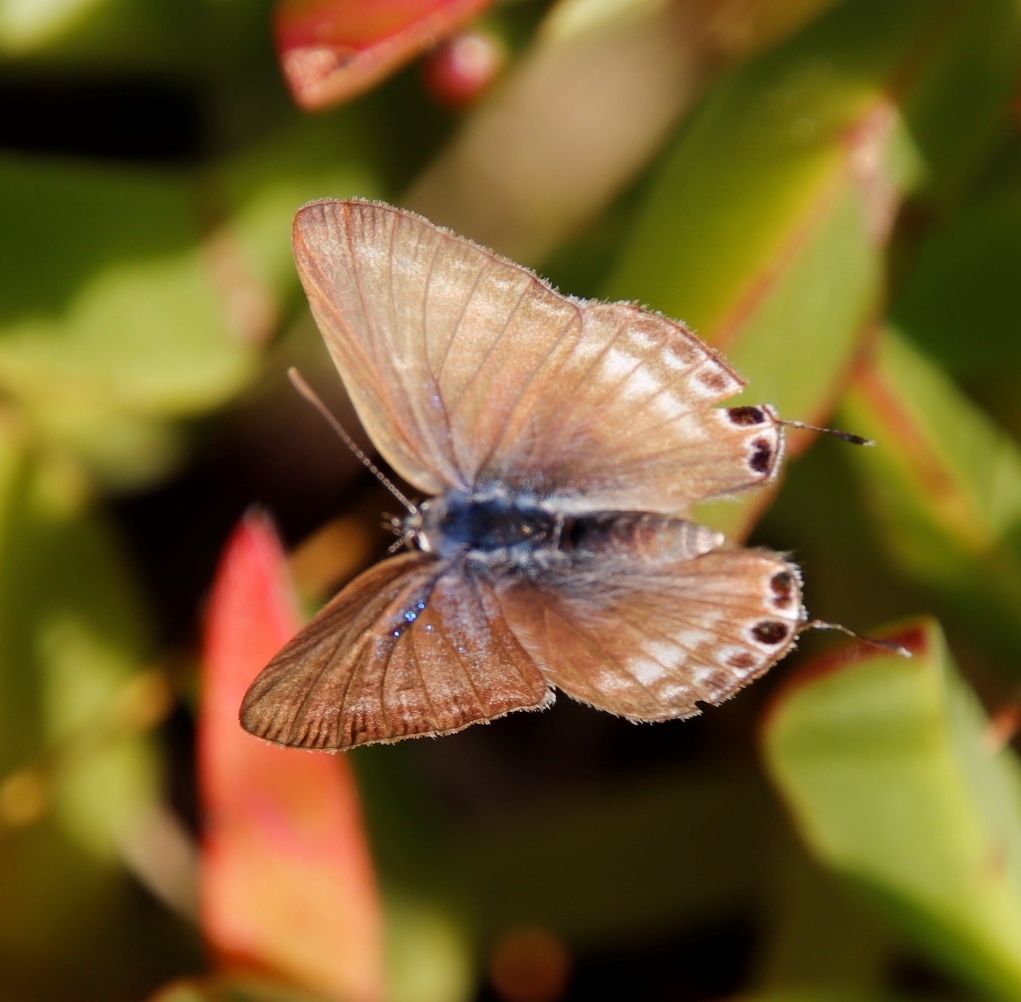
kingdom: Animalia
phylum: Arthropoda
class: Insecta
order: Lepidoptera
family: Lycaenidae
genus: Lampides
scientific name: Lampides boeticus
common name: Long-tailed blue
